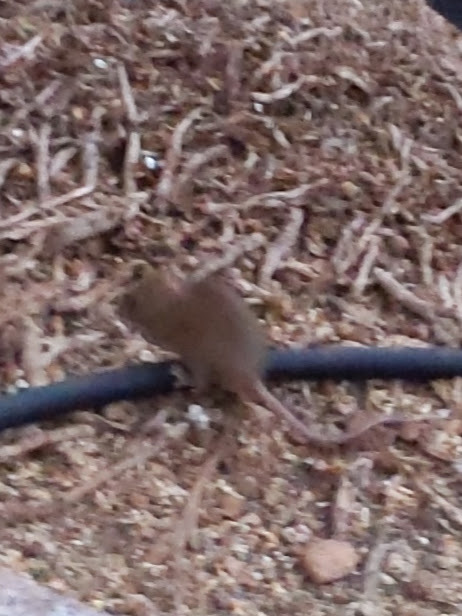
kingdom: Animalia
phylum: Chordata
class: Mammalia
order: Rodentia
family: Muridae
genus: Mus
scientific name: Mus musculus
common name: House mouse
